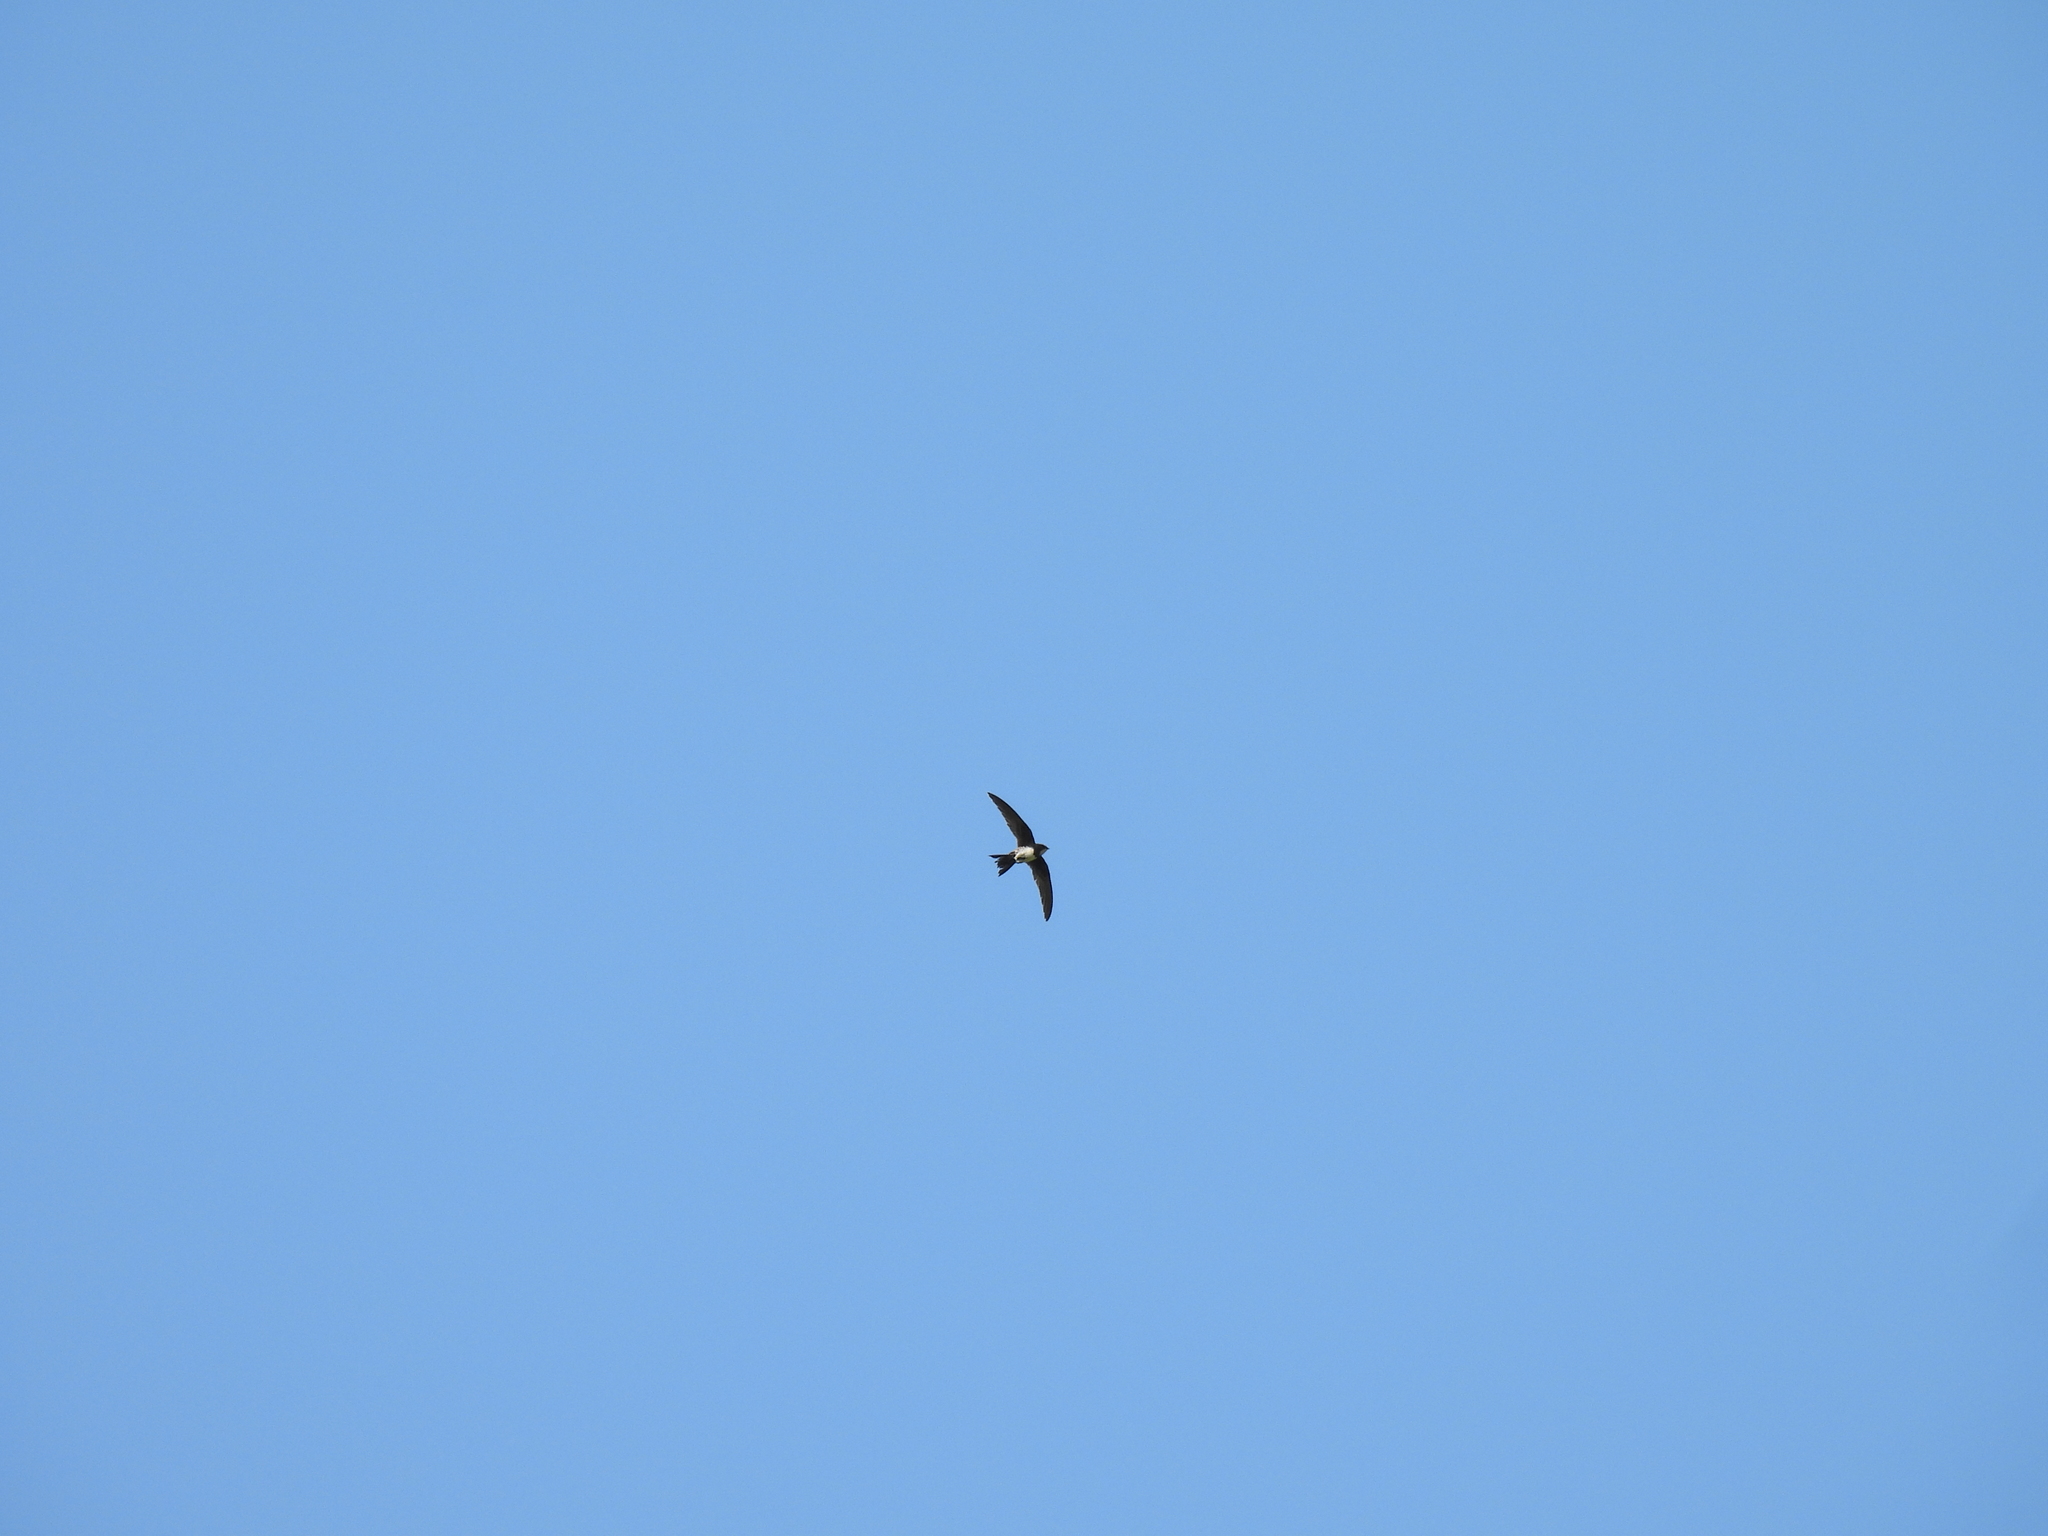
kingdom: Animalia
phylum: Chordata
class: Aves
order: Apodiformes
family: Apodidae
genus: Tachymarptis
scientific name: Tachymarptis melba
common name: Alpine swift
